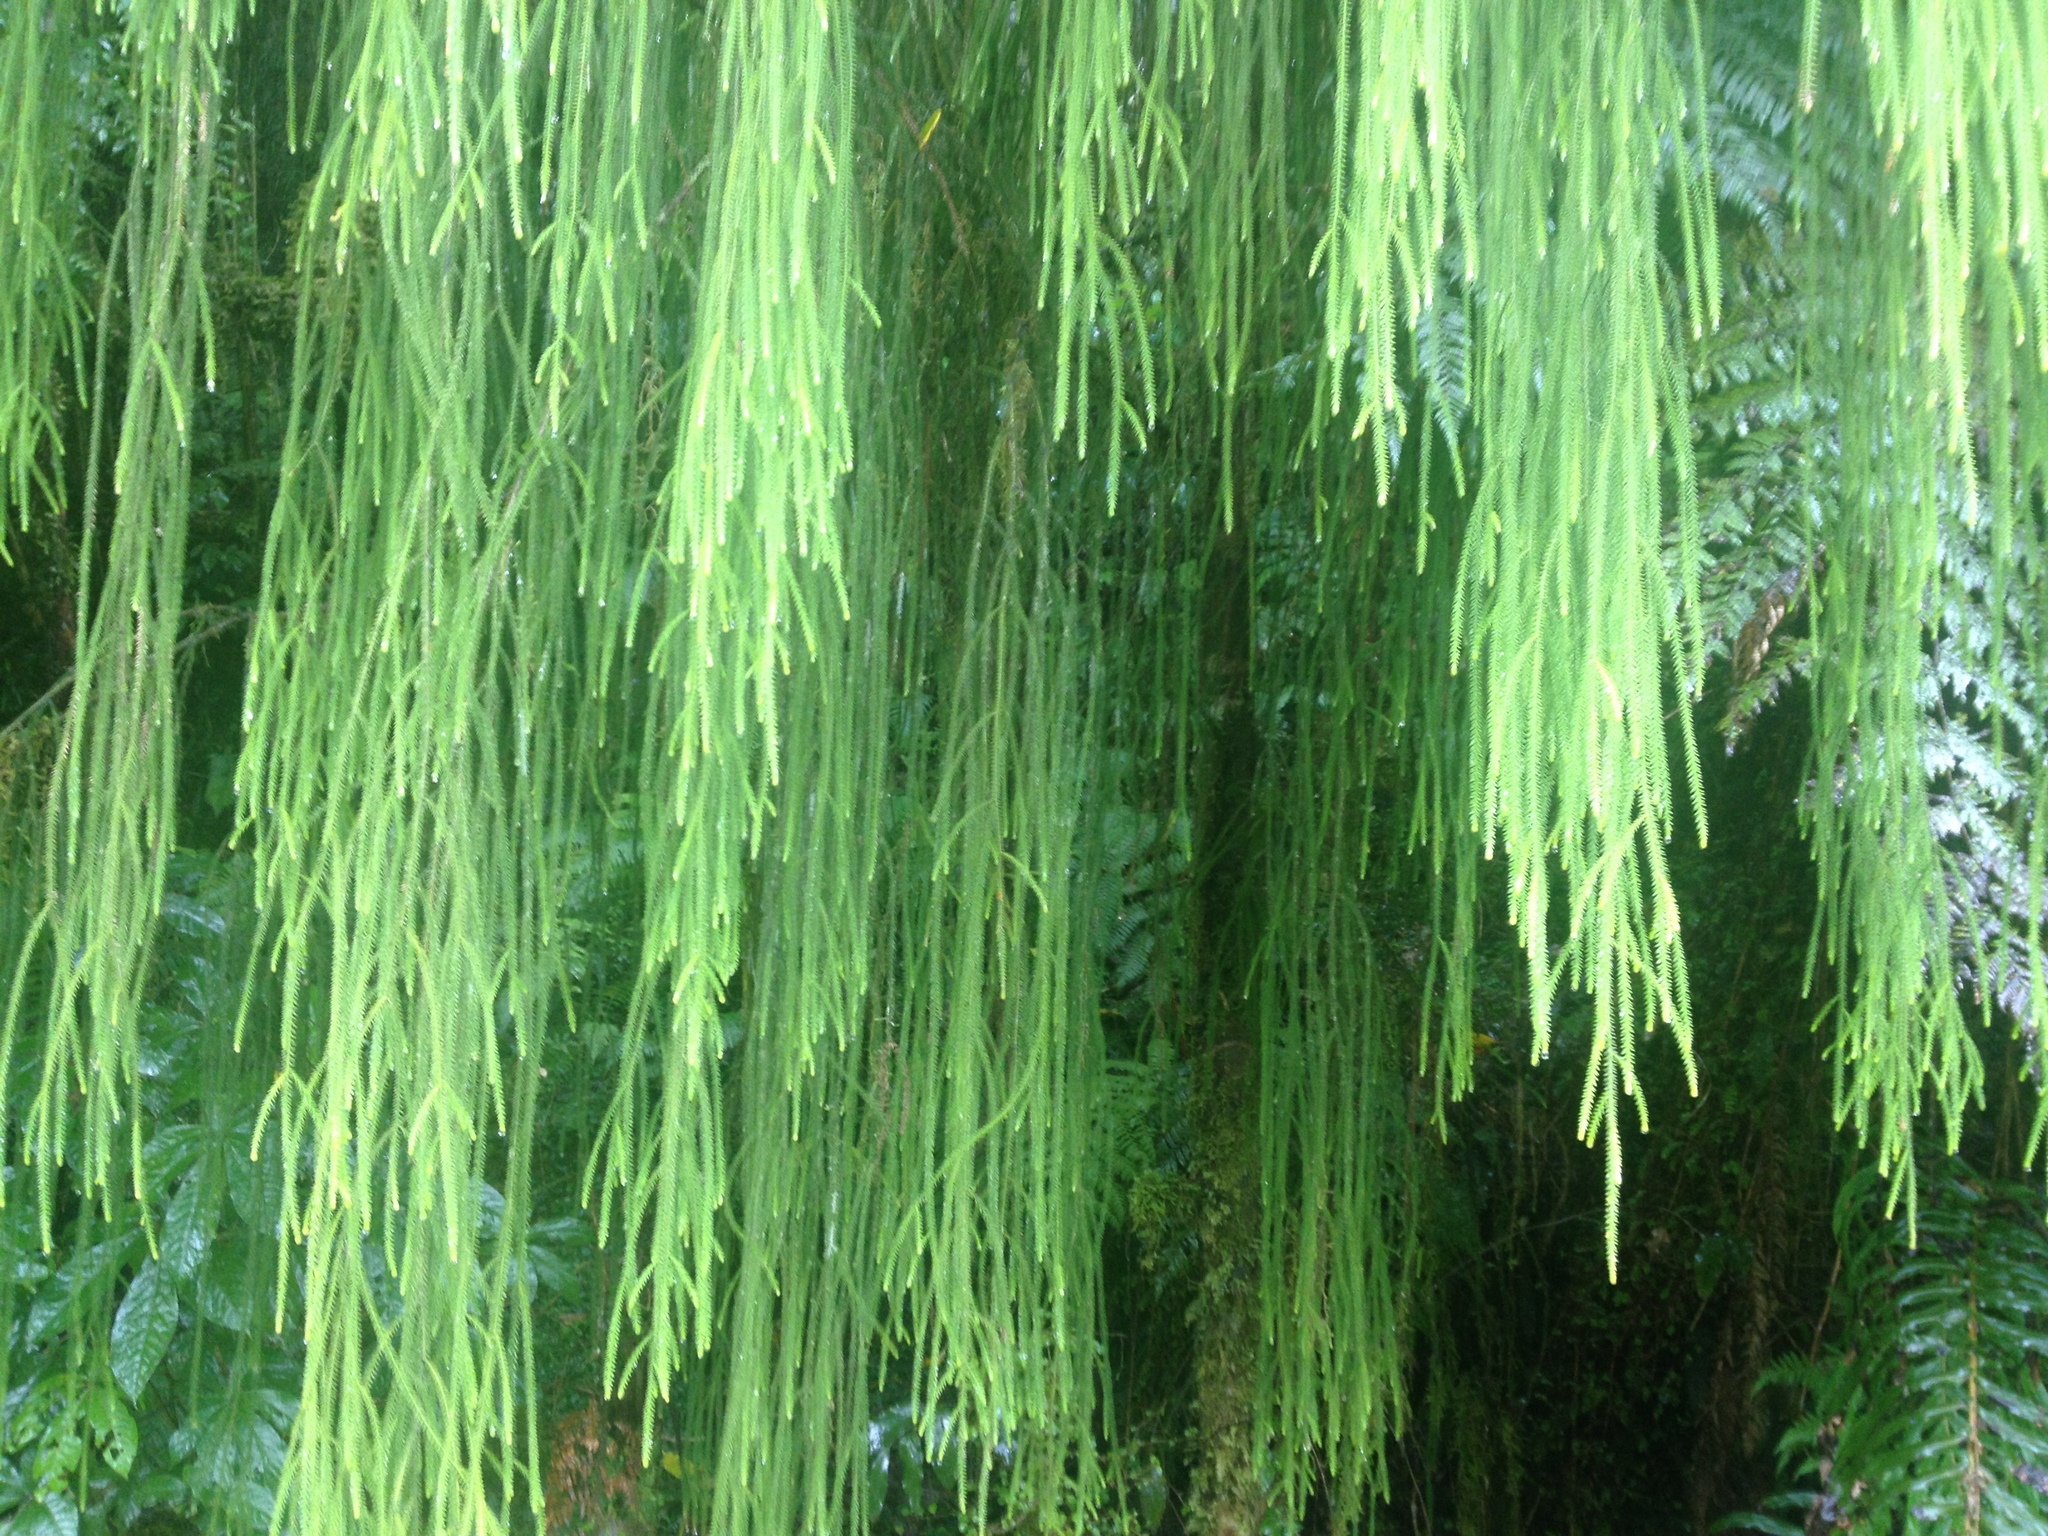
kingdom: Plantae
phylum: Tracheophyta
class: Pinopsida
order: Pinales
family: Podocarpaceae
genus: Dacrydium
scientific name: Dacrydium cupressinum
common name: Red pine
